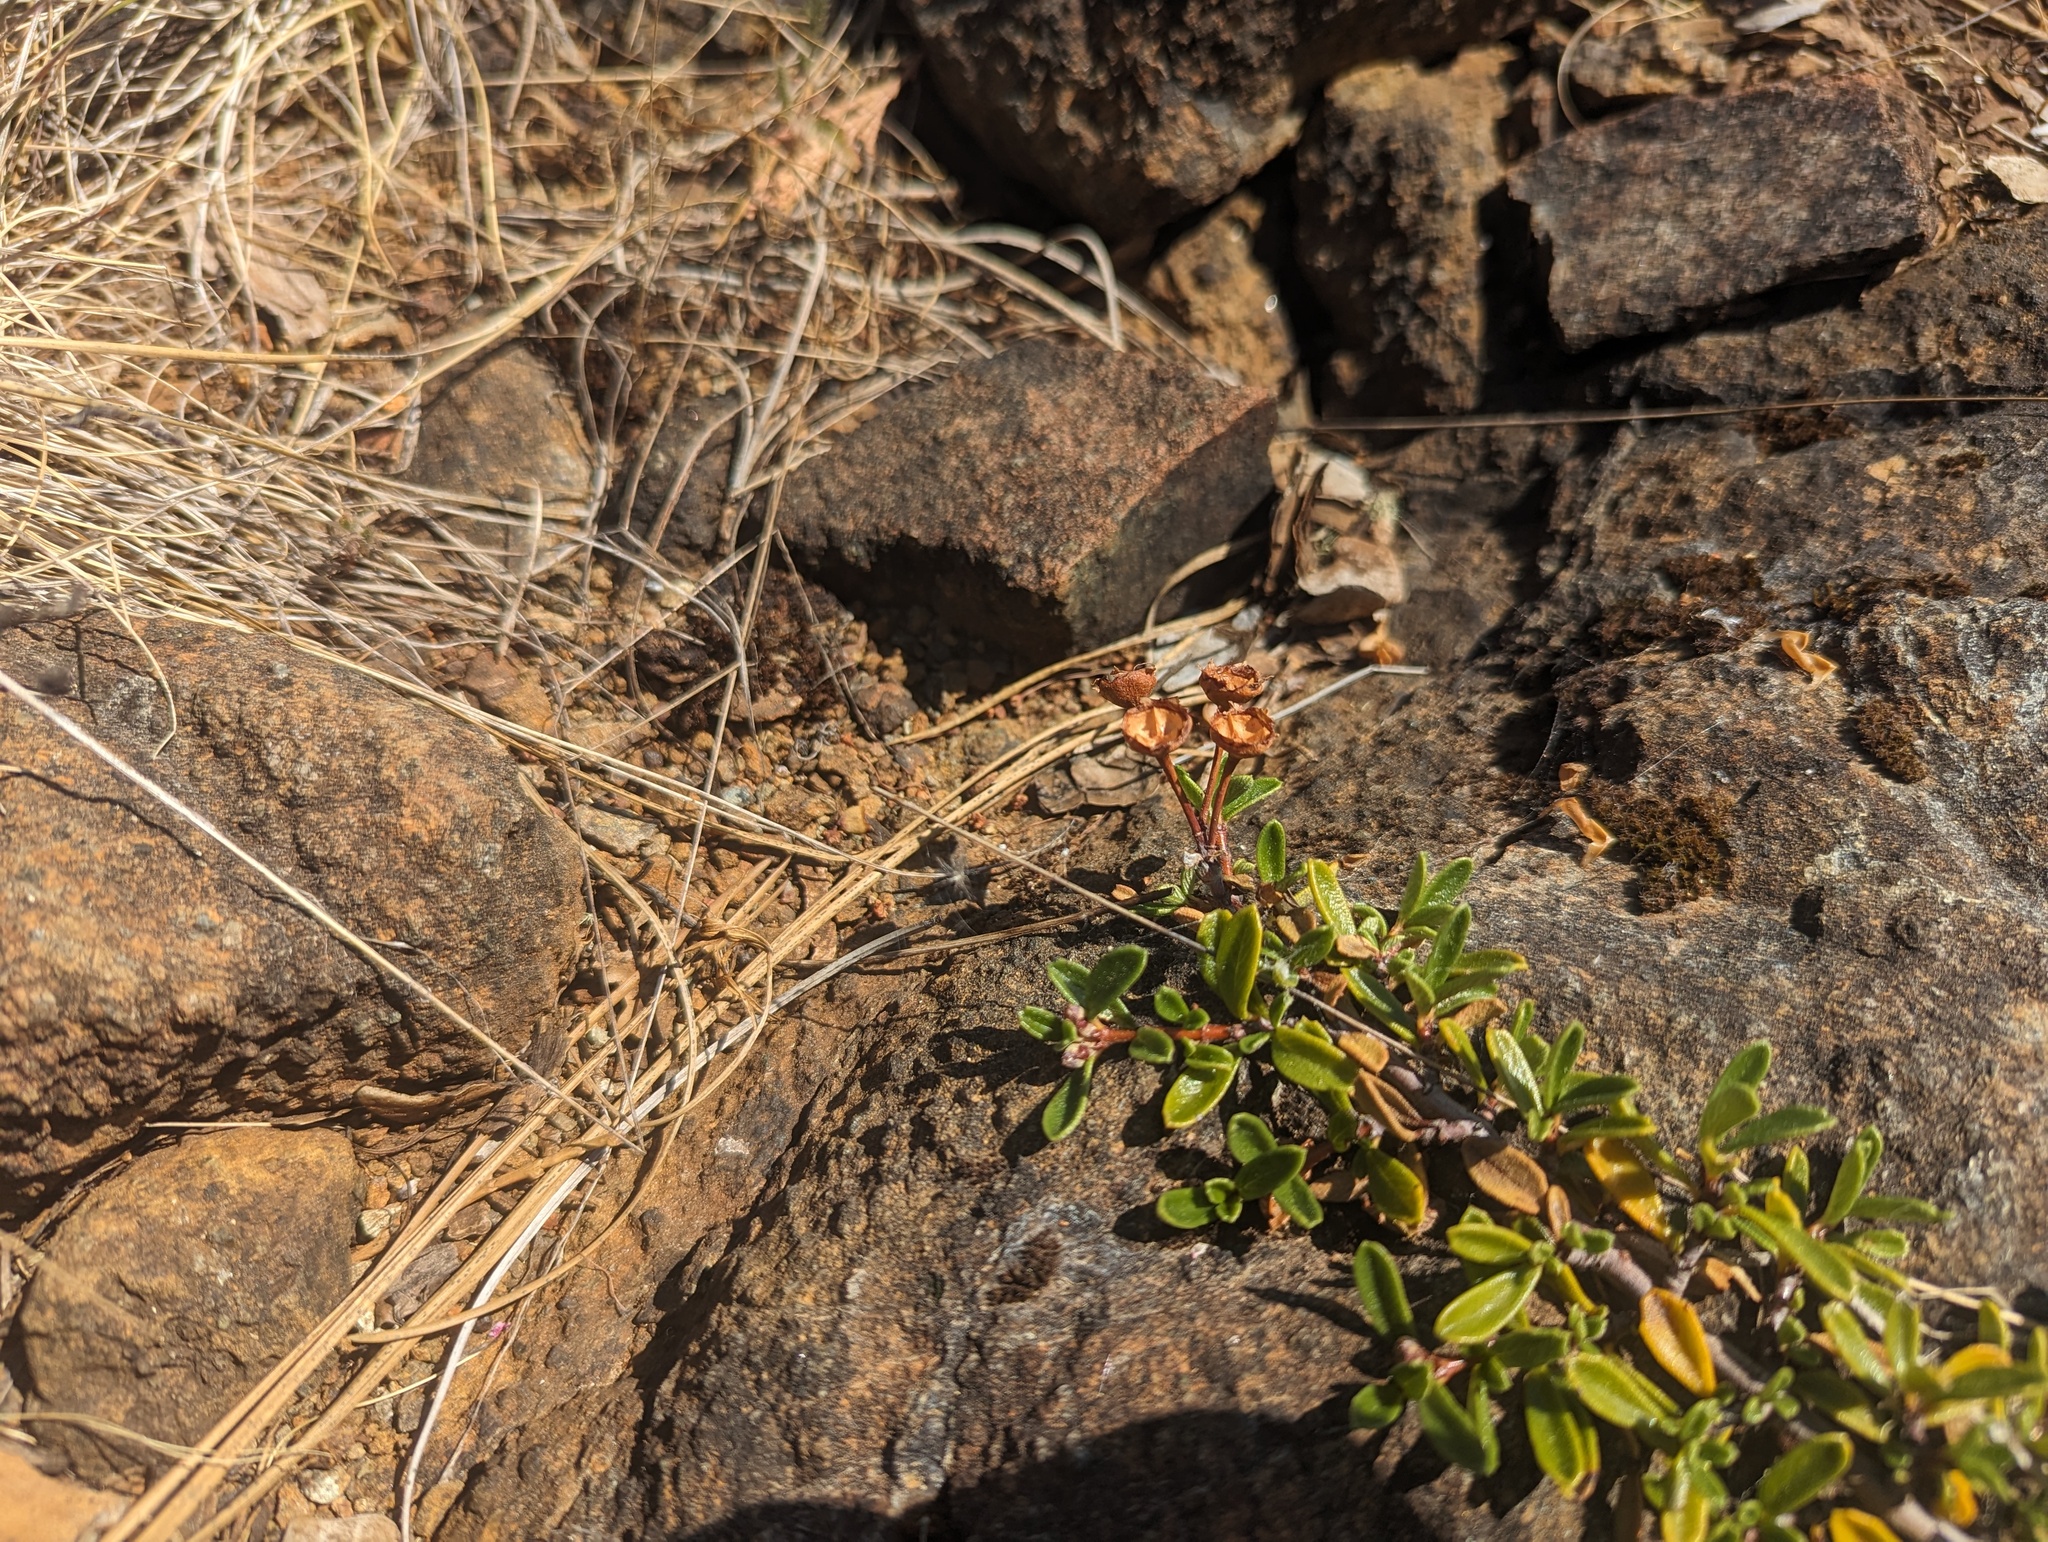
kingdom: Plantae
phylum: Tracheophyta
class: Magnoliopsida
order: Rosales
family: Rhamnaceae
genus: Ceanothus
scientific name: Ceanothus pumilus
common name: Siskiyou-mat
